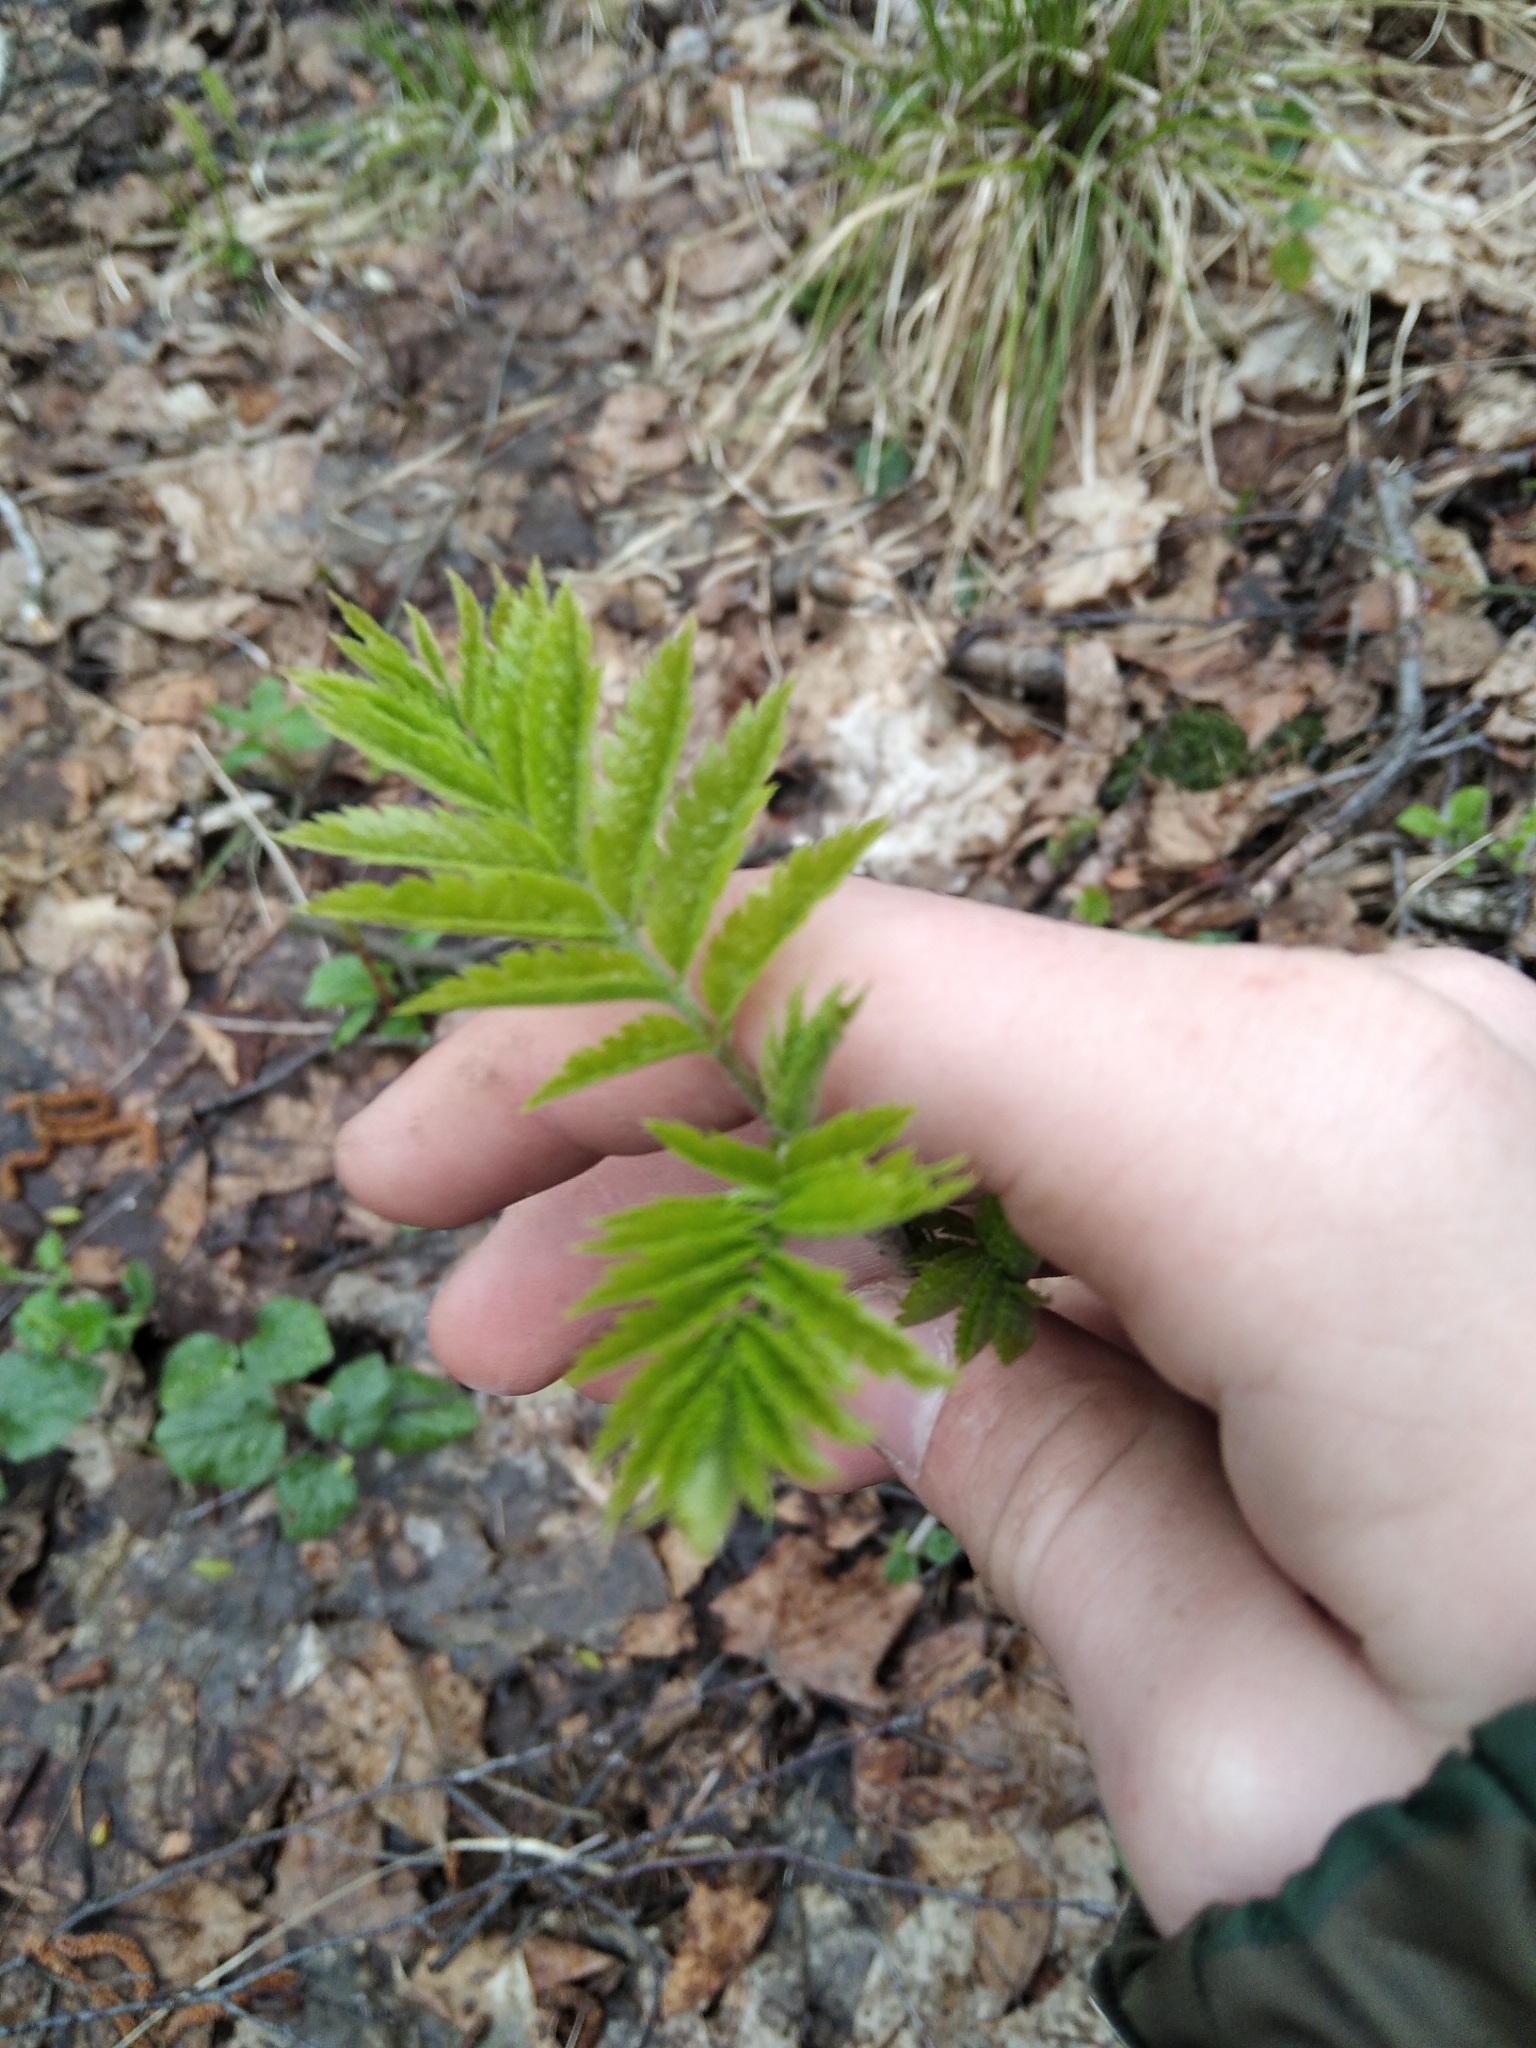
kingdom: Plantae
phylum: Tracheophyta
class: Magnoliopsida
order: Rosales
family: Rosaceae
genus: Sorbus
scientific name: Sorbus aucuparia
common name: Rowan
